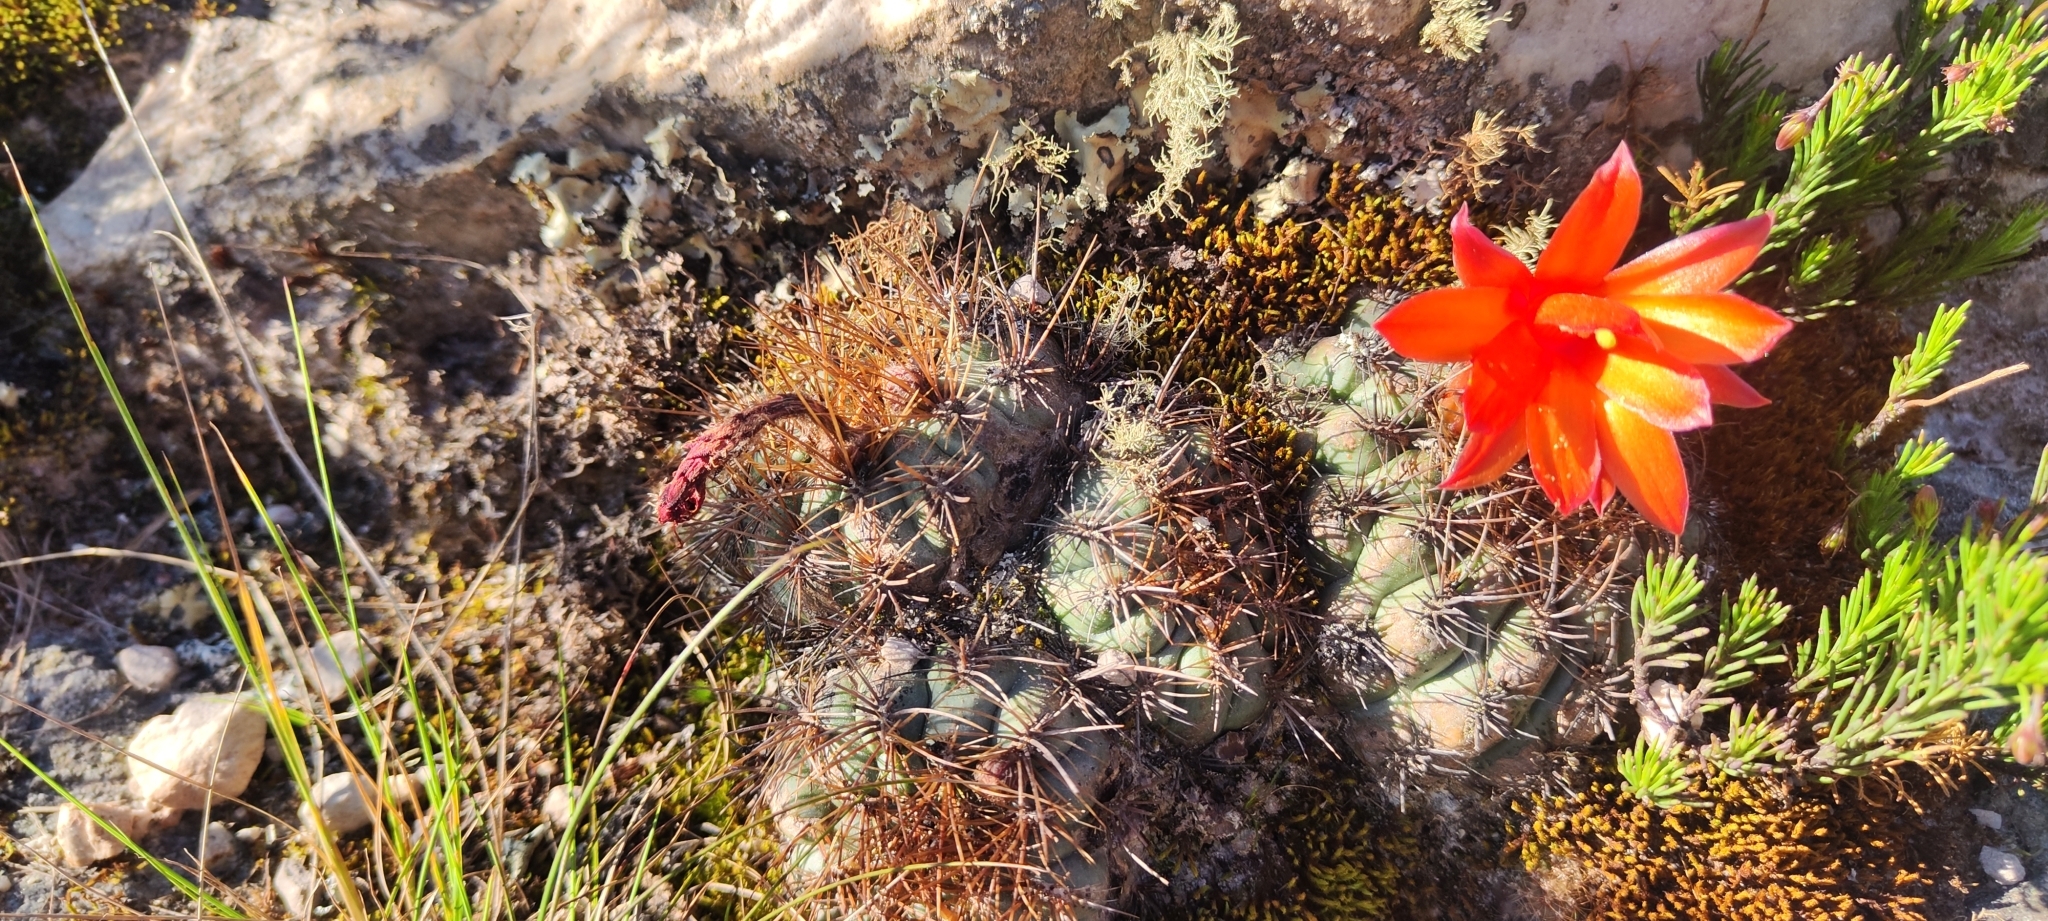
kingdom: Plantae
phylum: Tracheophyta
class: Magnoliopsida
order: Caryophyllales
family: Cactaceae
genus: Matucana
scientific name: Matucana aurantiaca
